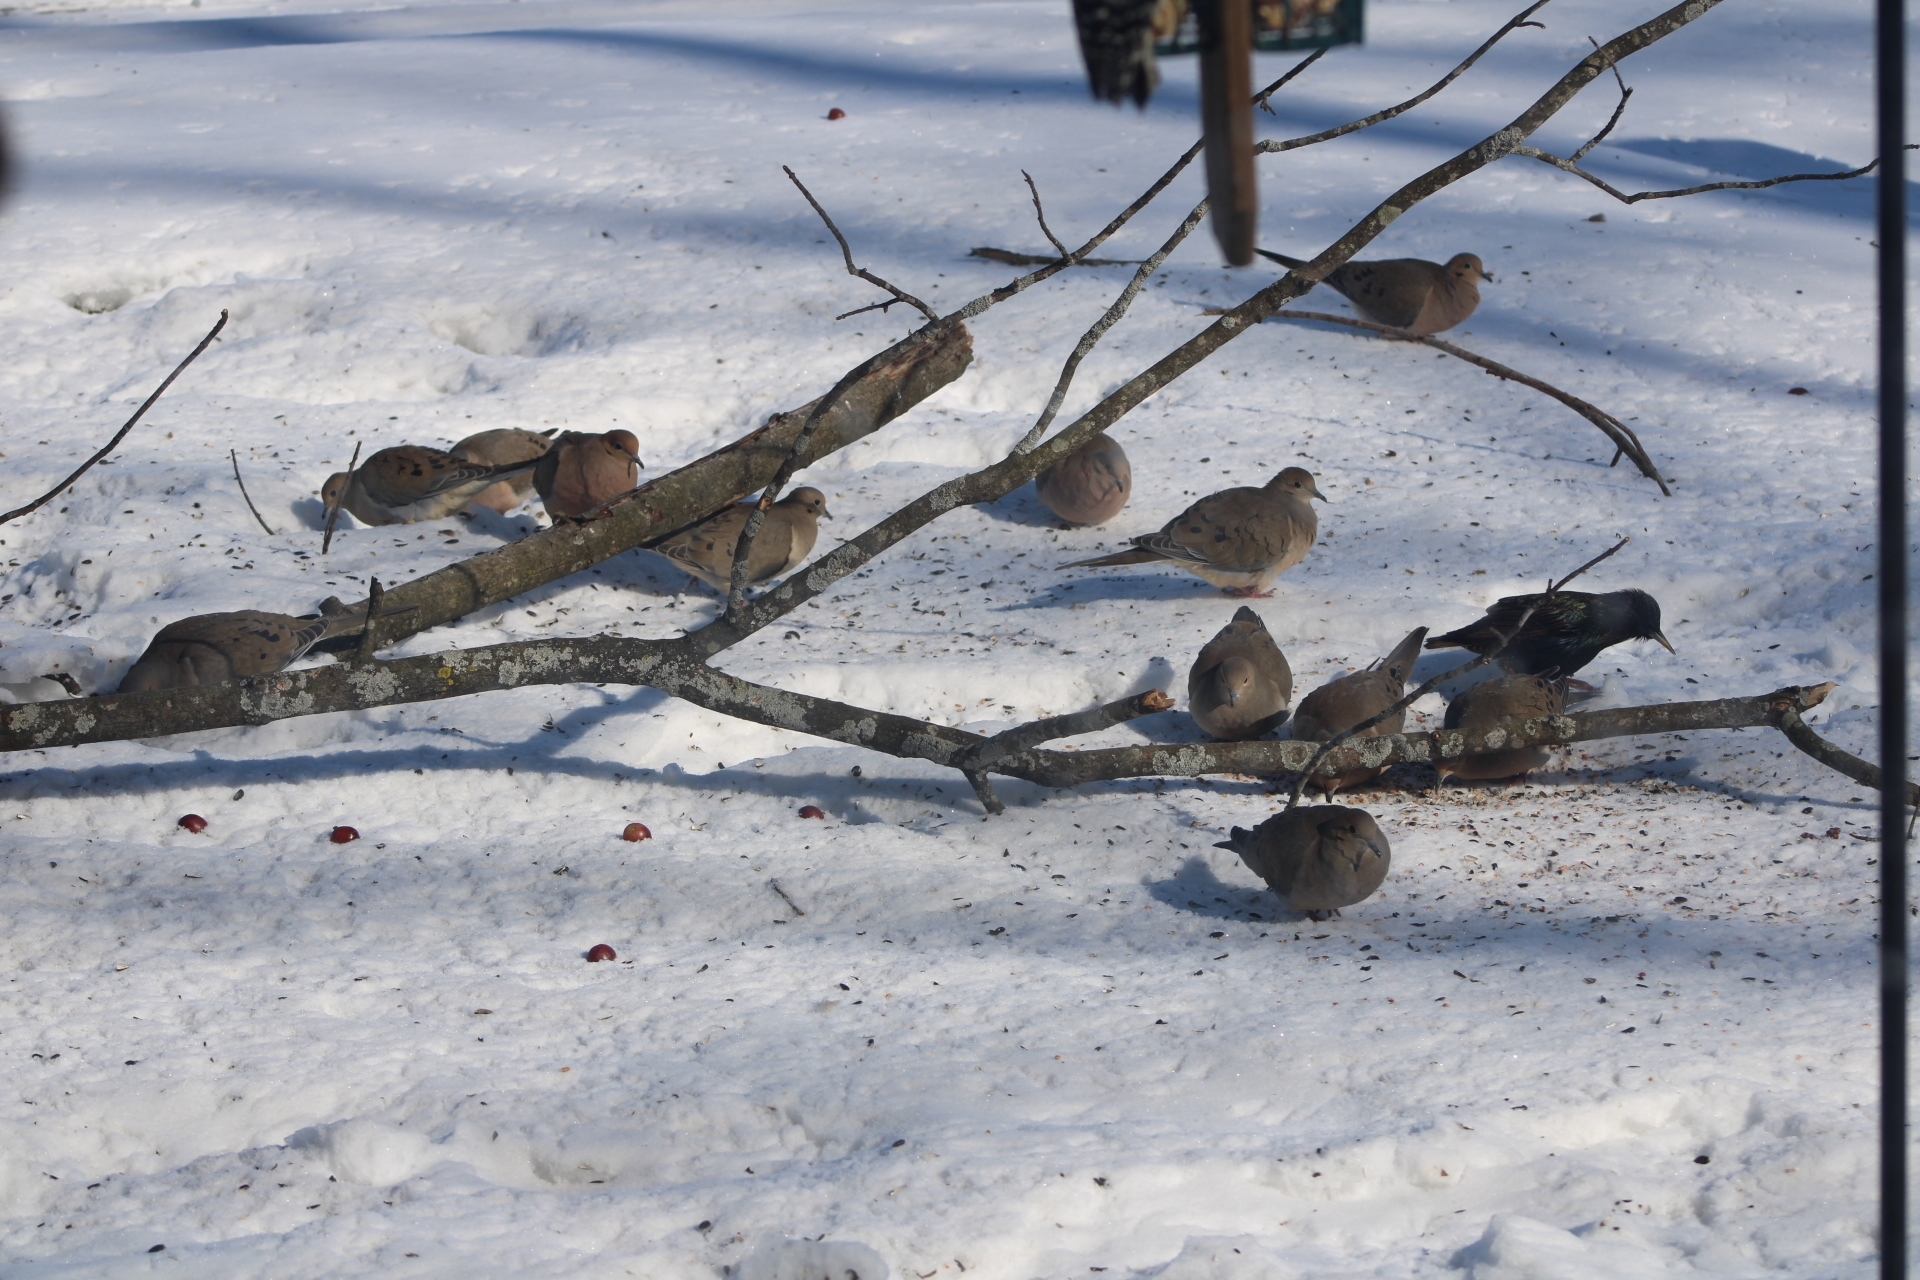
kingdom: Animalia
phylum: Chordata
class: Aves
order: Columbiformes
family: Columbidae
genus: Zenaida
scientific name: Zenaida macroura
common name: Mourning dove
